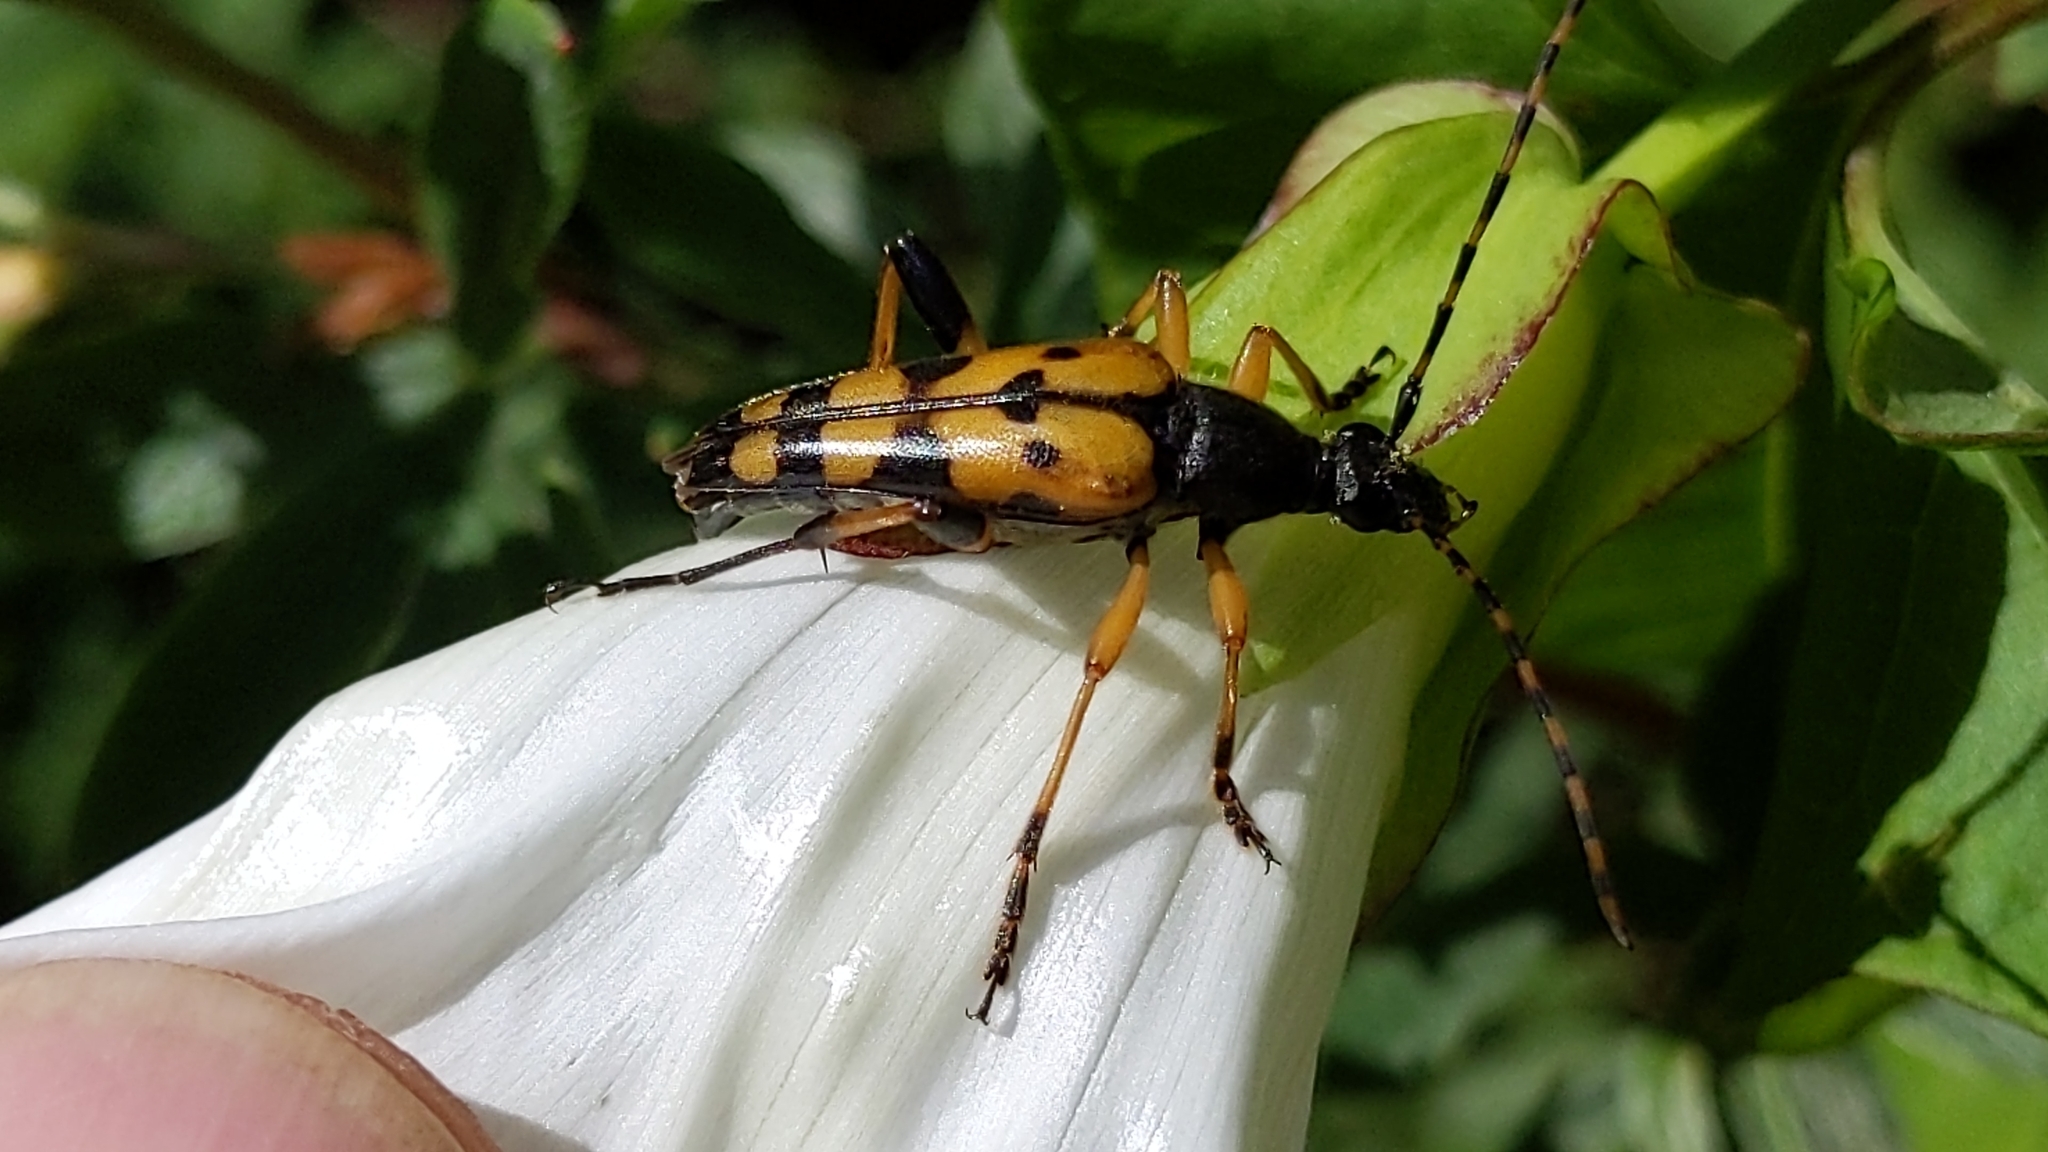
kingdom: Animalia
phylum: Arthropoda
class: Insecta
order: Coleoptera
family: Cerambycidae
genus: Rutpela
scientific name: Rutpela maculata
